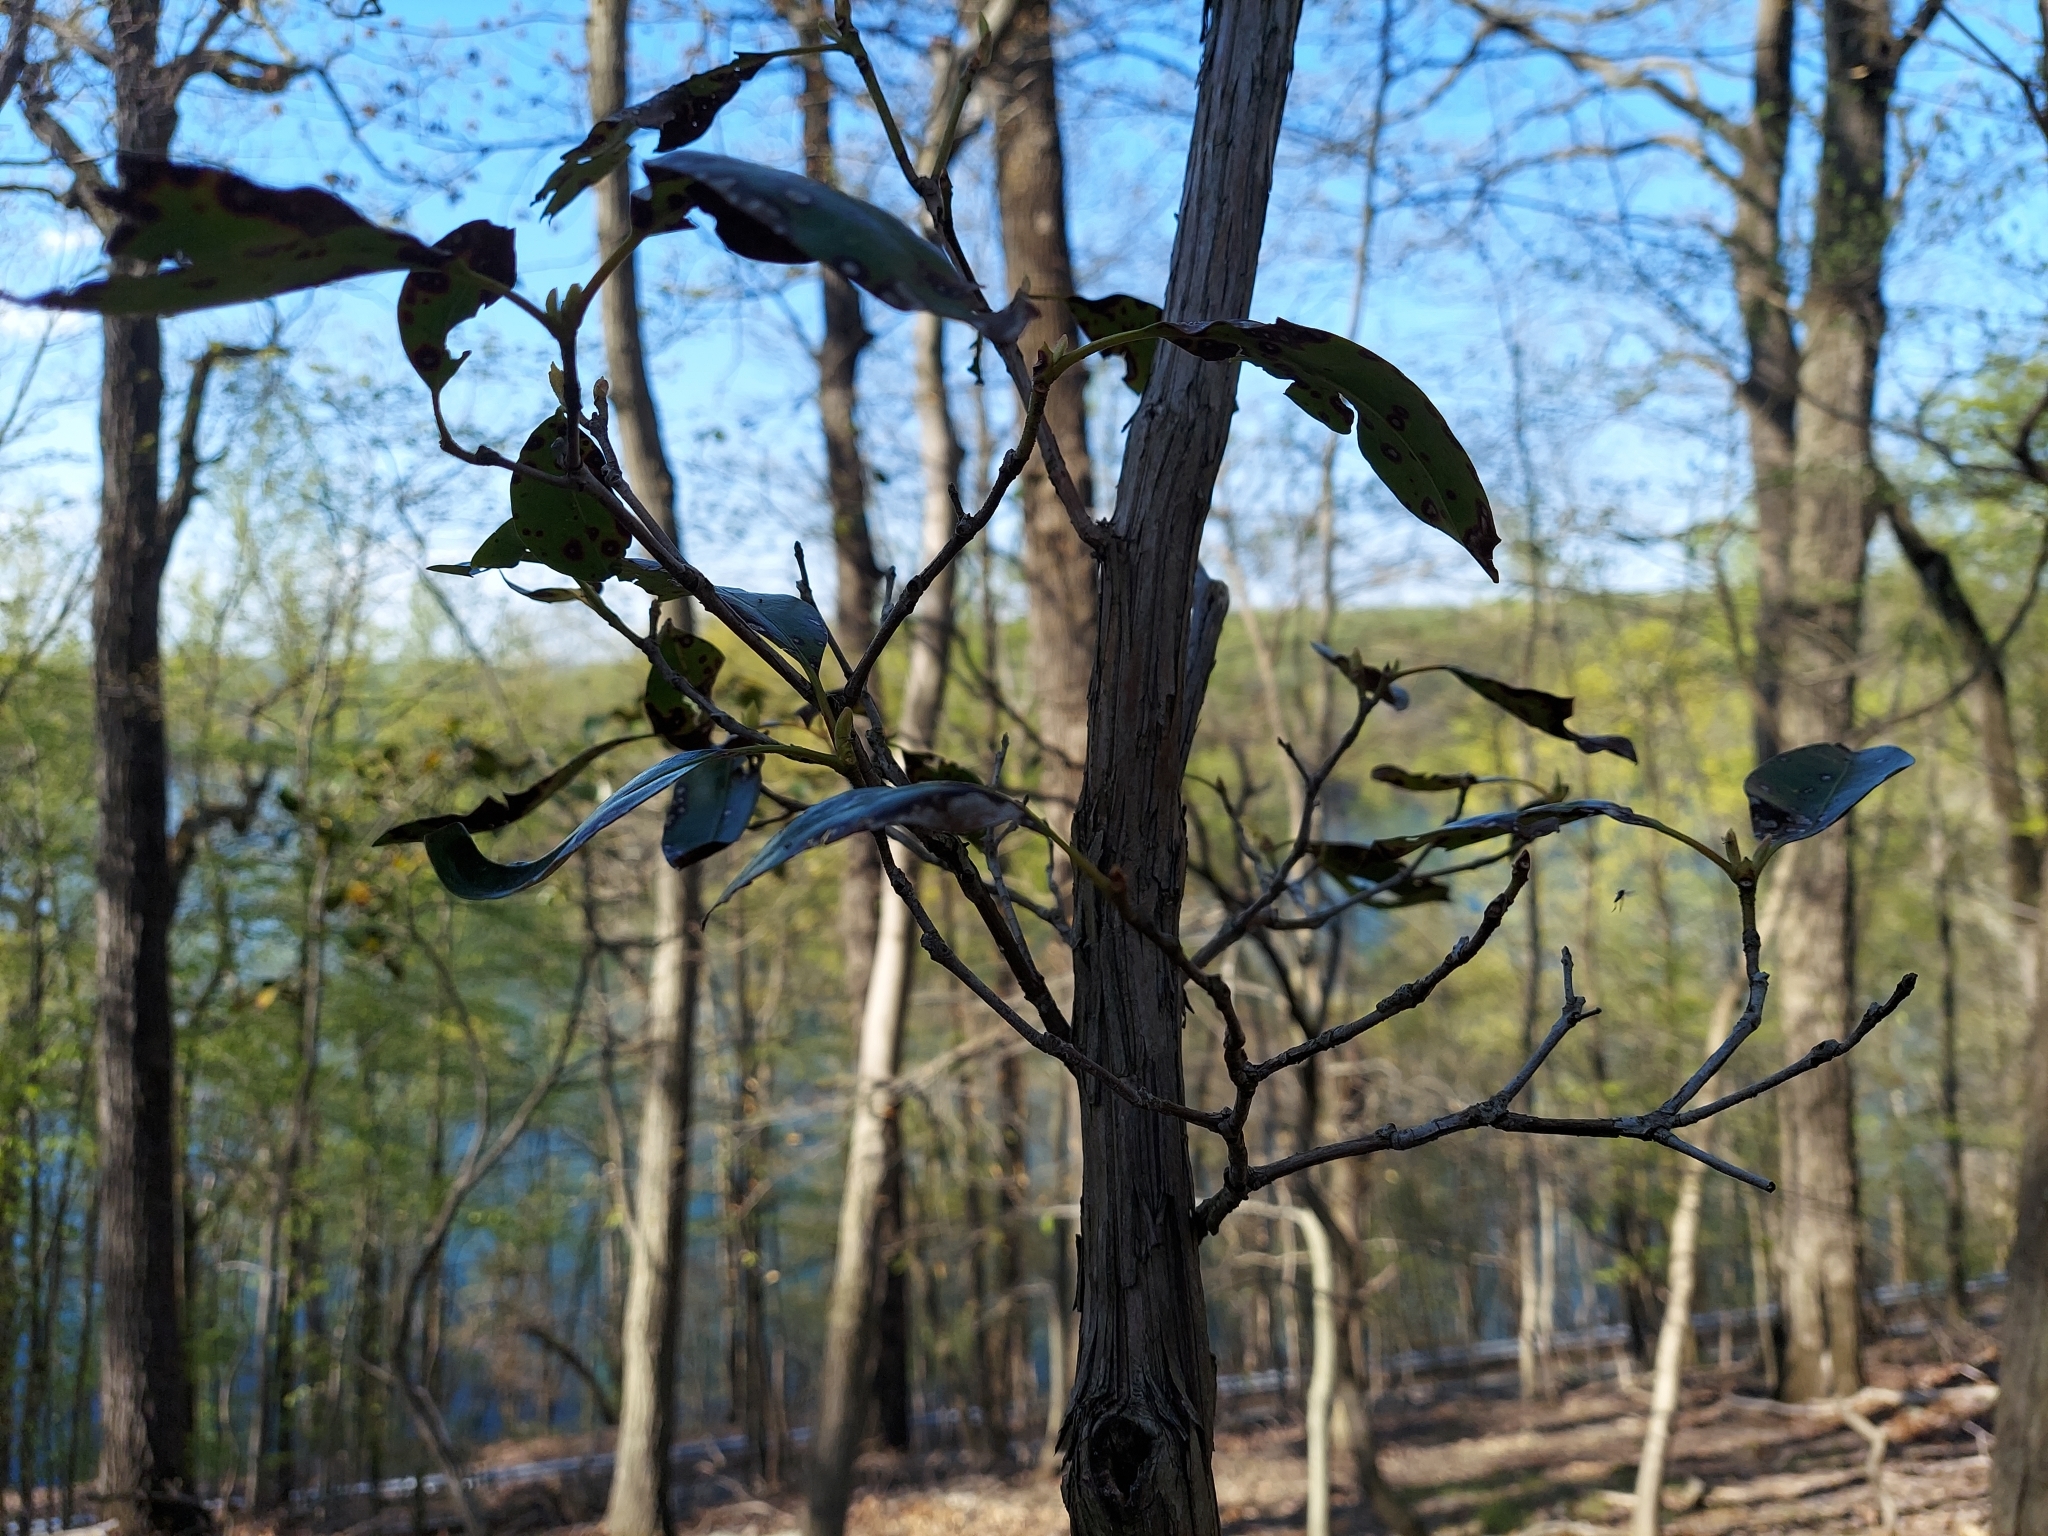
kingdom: Plantae
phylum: Tracheophyta
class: Magnoliopsida
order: Ericales
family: Ericaceae
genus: Kalmia
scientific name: Kalmia latifolia
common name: Mountain-laurel
